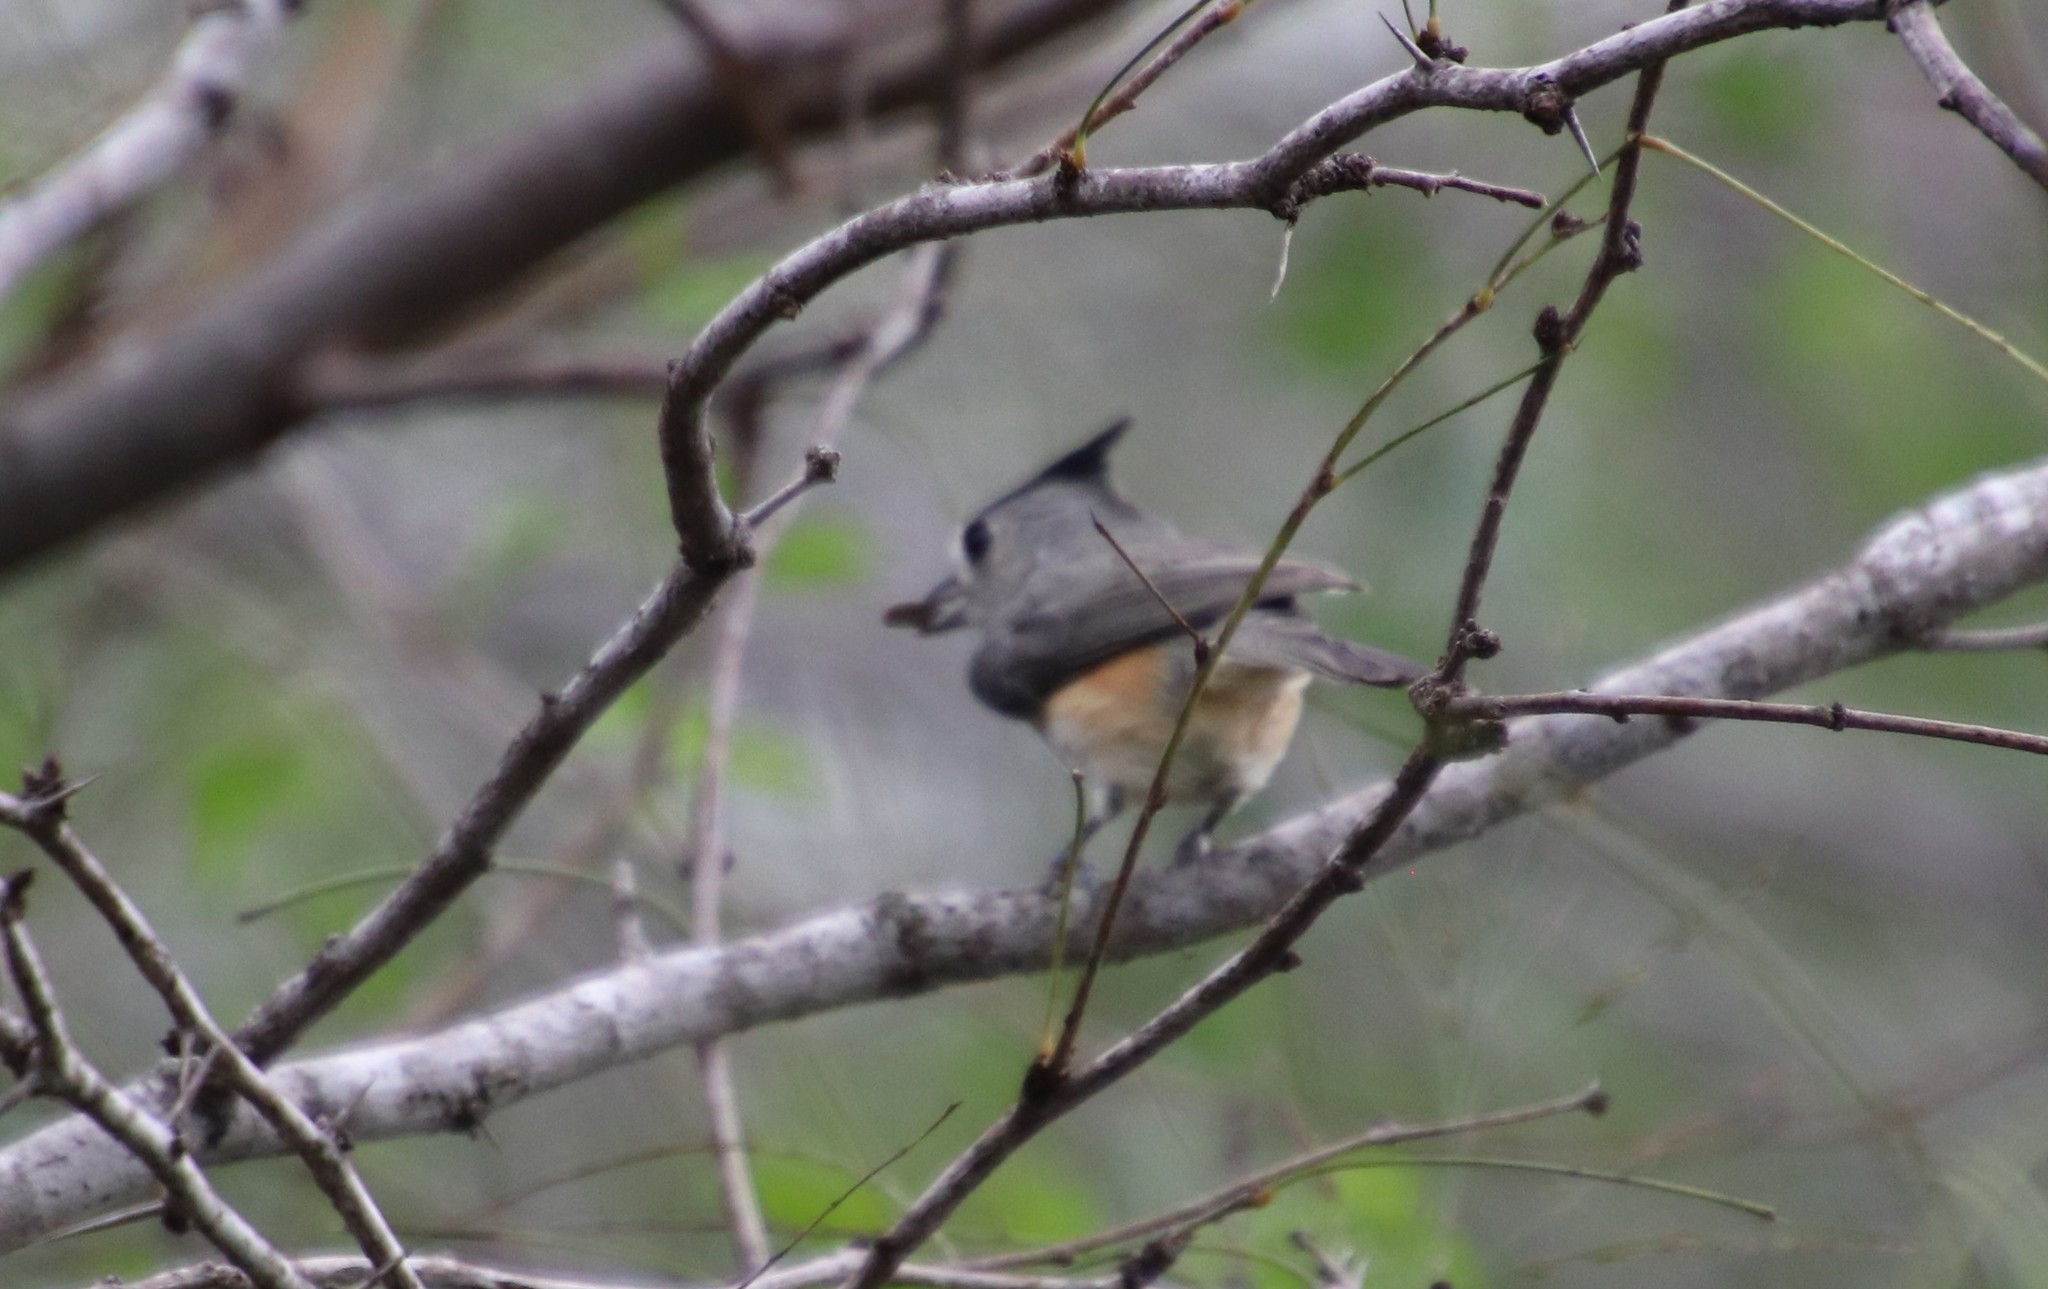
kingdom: Animalia
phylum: Chordata
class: Aves
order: Passeriformes
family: Paridae
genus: Baeolophus
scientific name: Baeolophus atricristatus
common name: Black-crested titmouse
